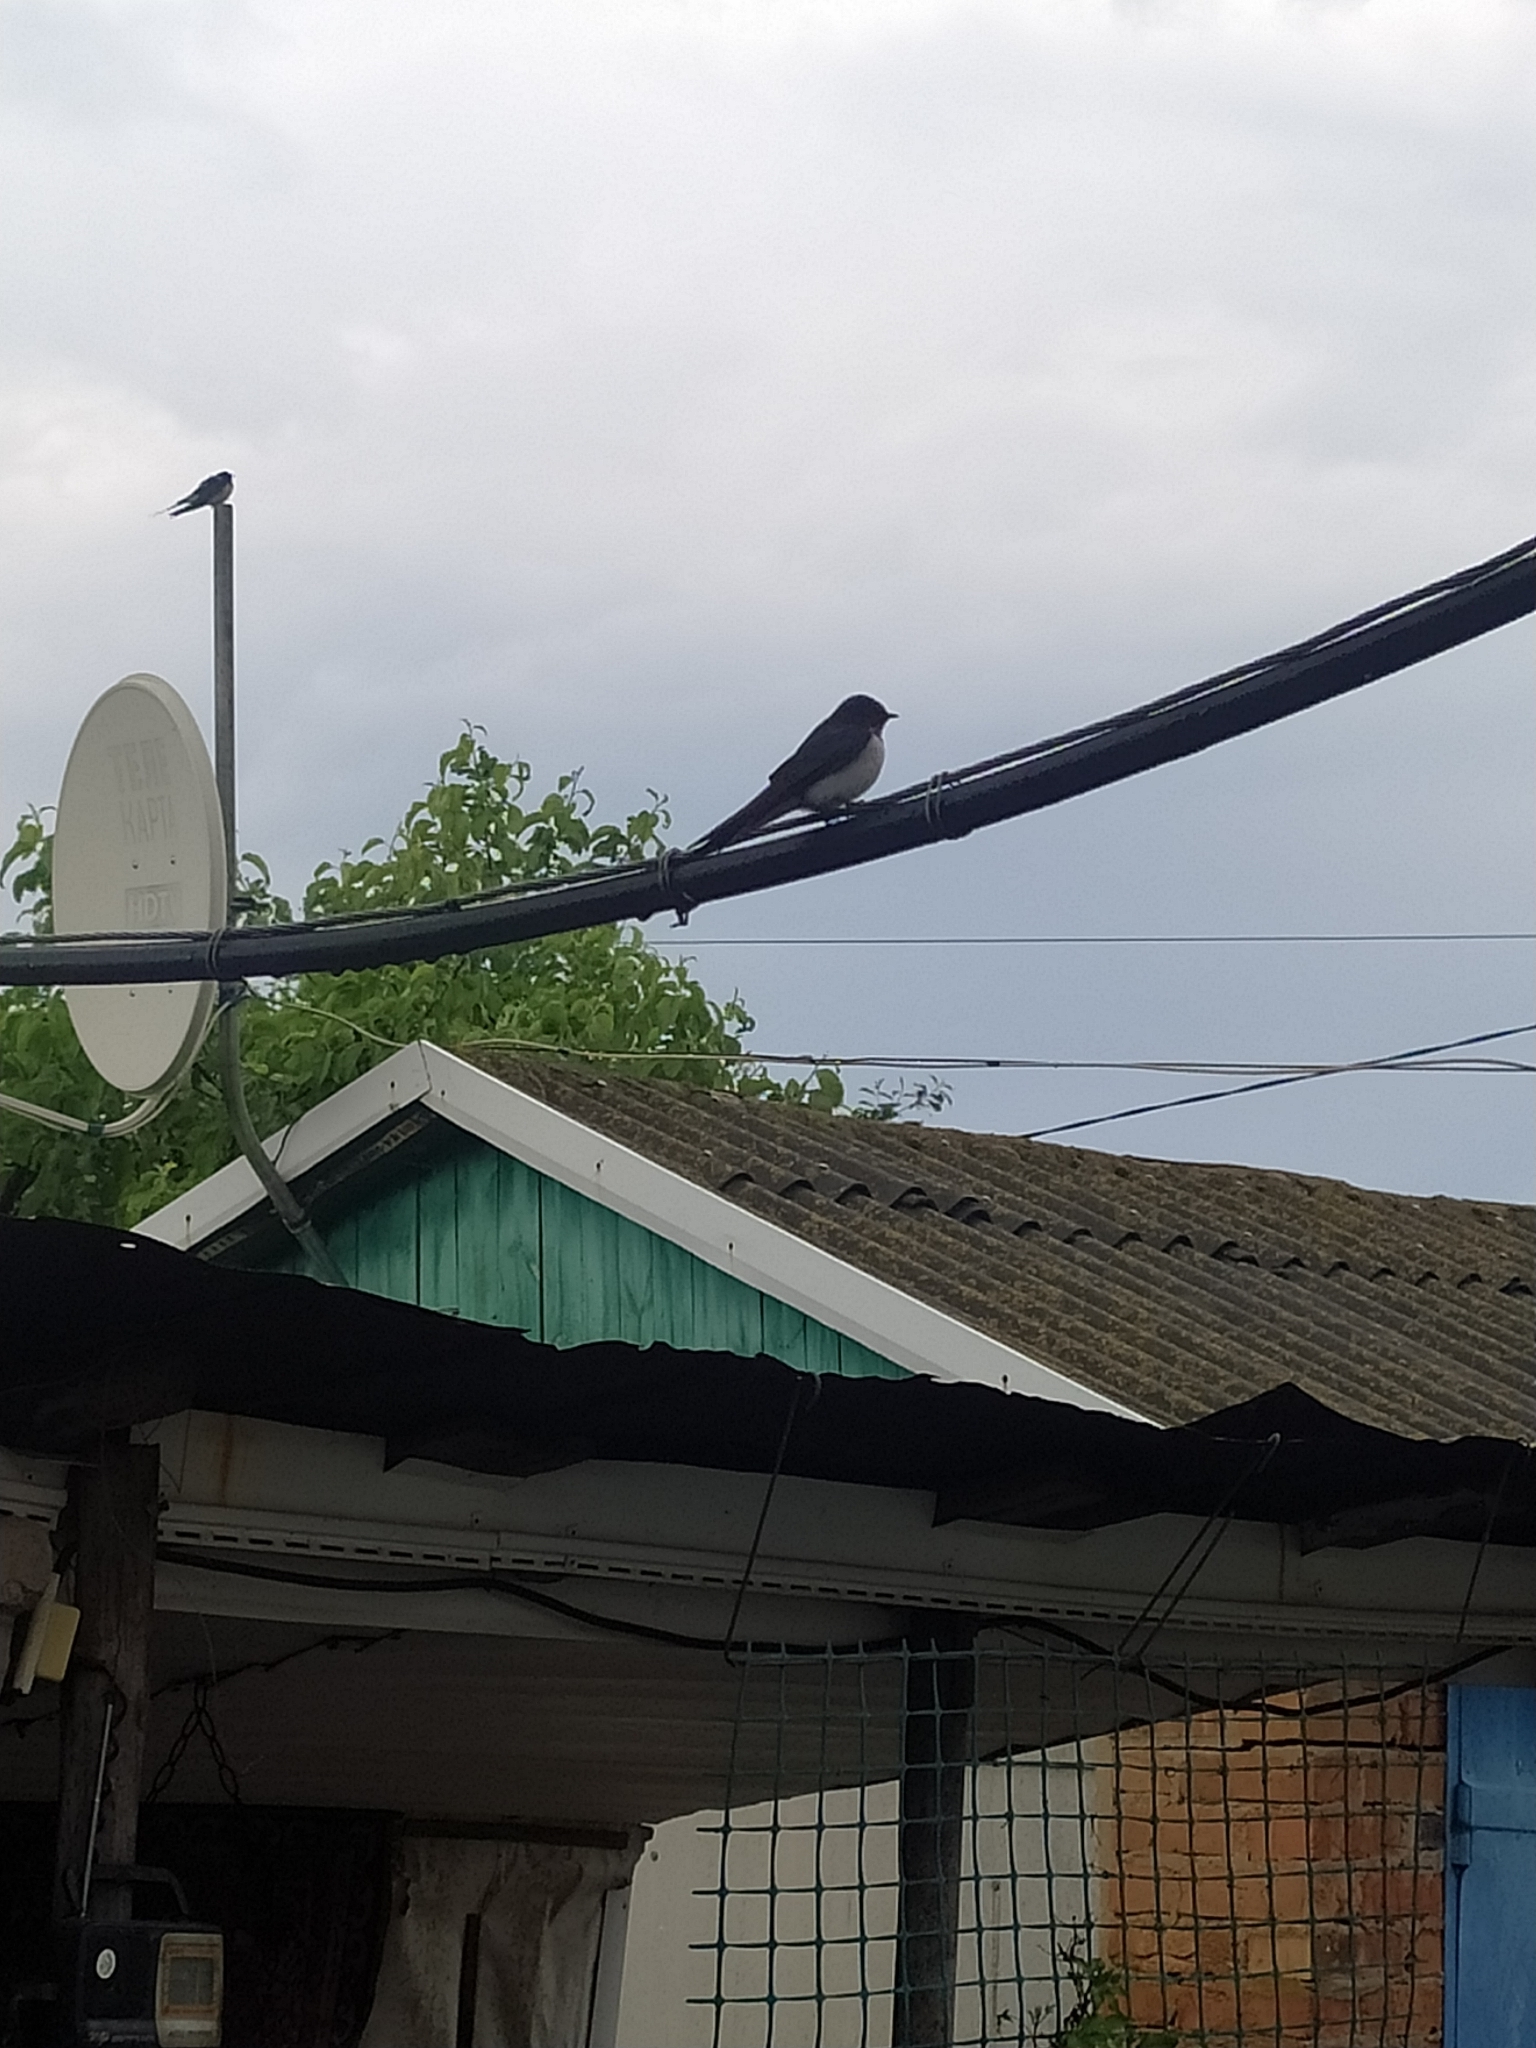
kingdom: Animalia
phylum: Chordata
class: Aves
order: Passeriformes
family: Hirundinidae
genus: Hirundo
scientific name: Hirundo rustica
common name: Barn swallow
